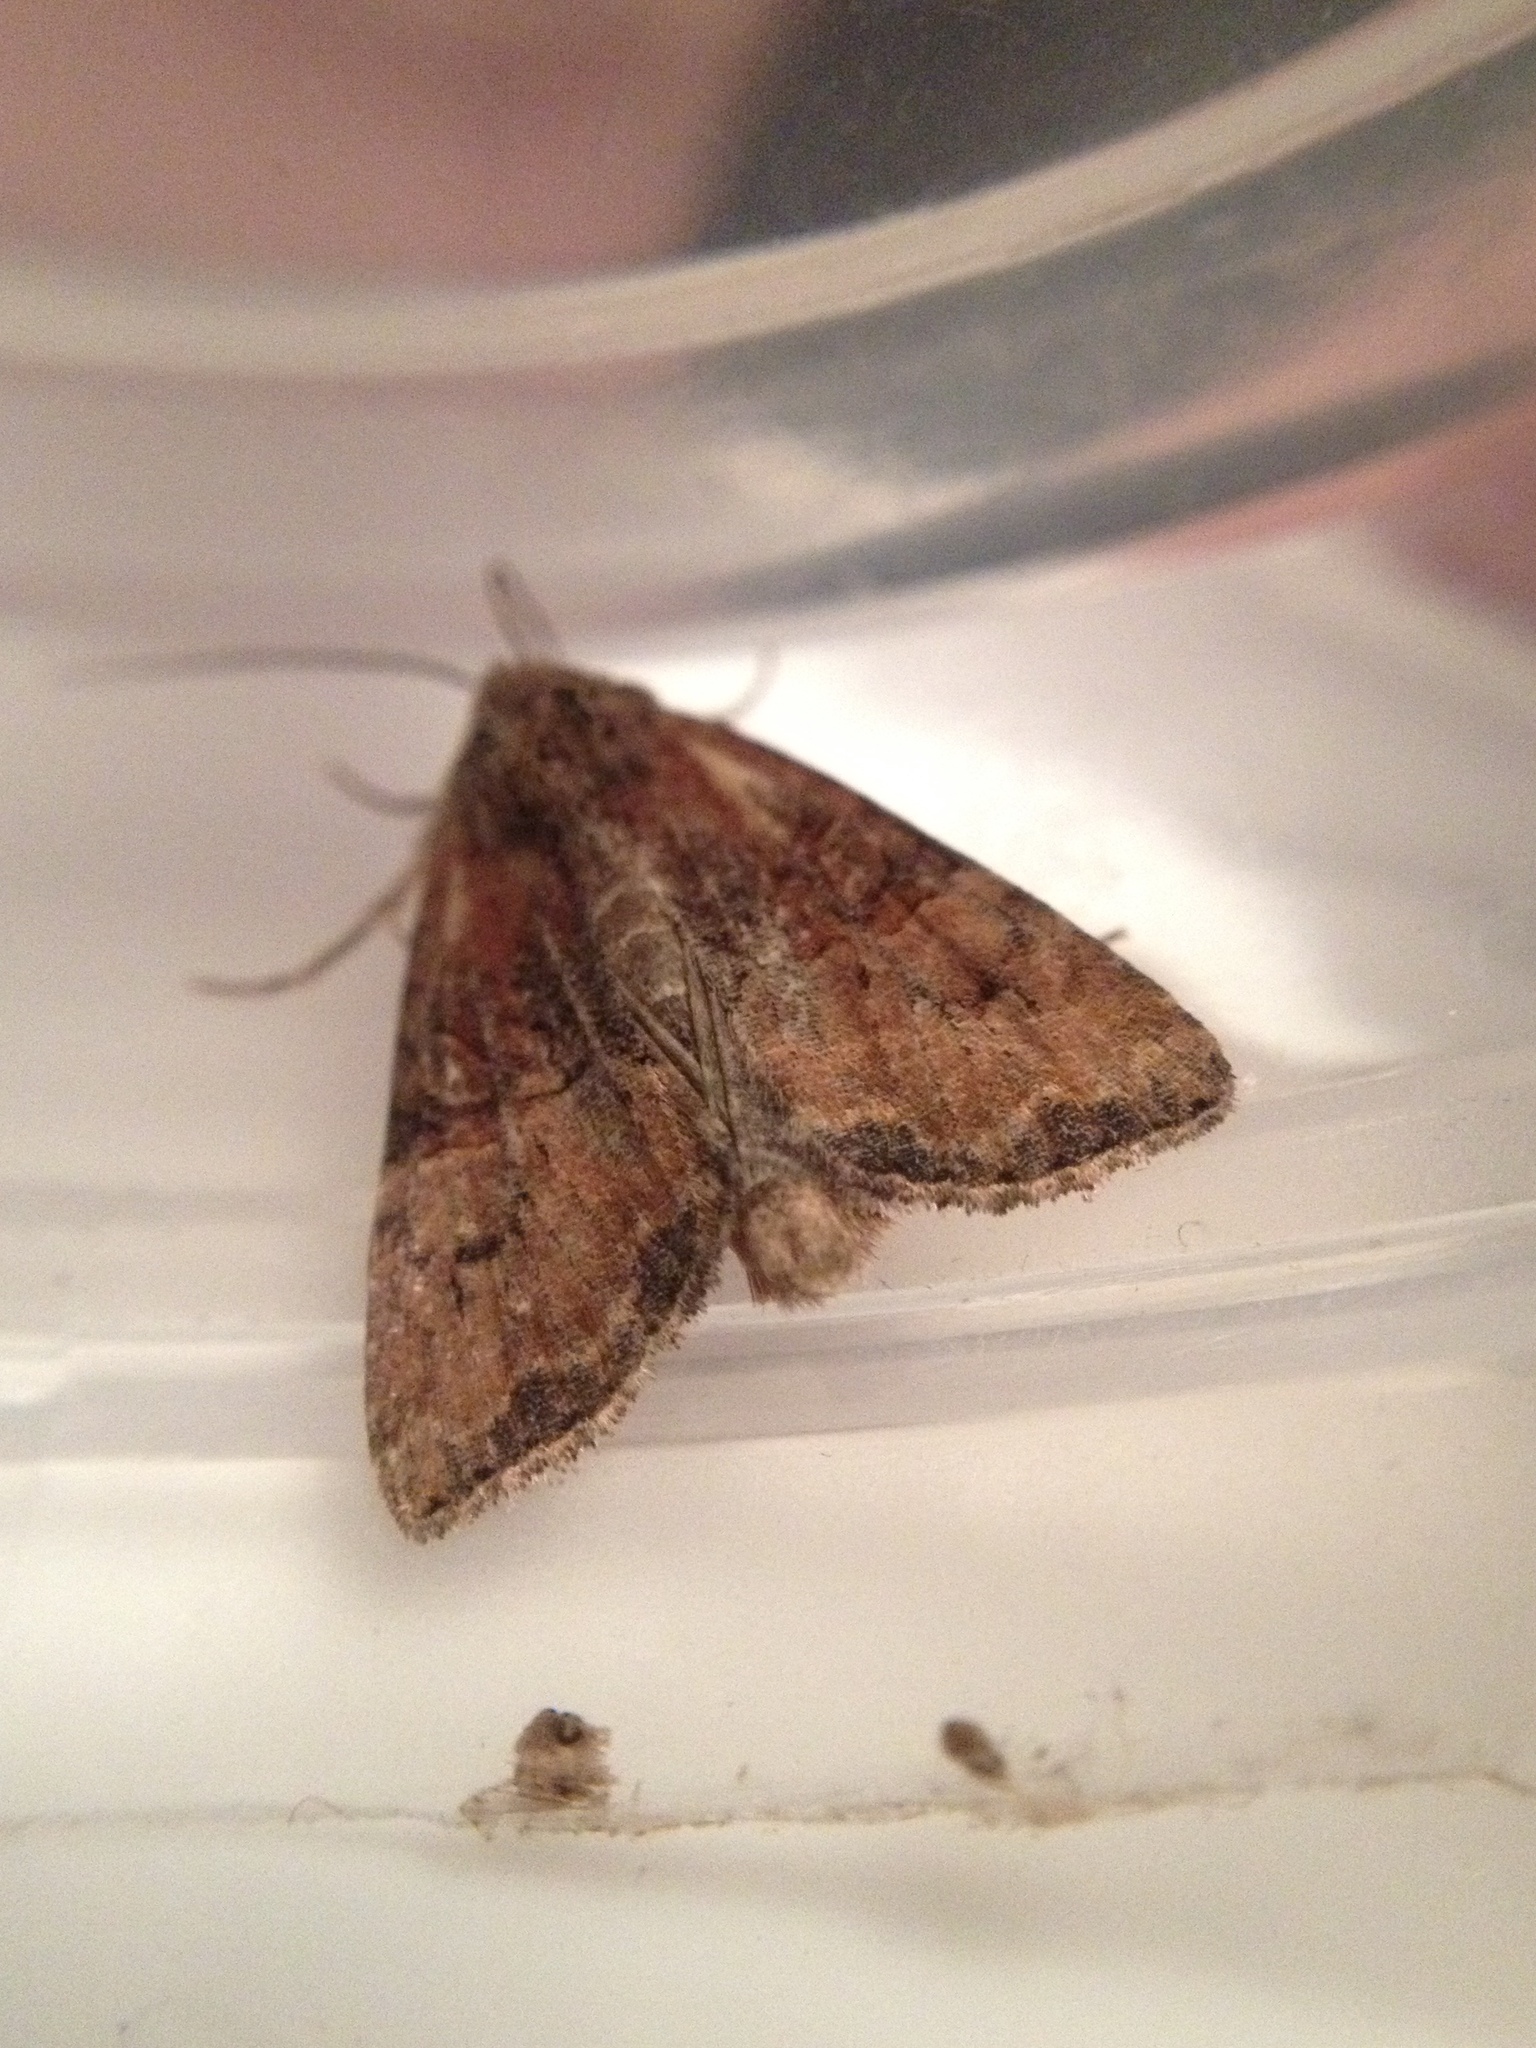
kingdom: Animalia
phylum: Arthropoda
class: Insecta
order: Lepidoptera
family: Noctuidae
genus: Mesoligia
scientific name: Mesoligia furuncula
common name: Cloaked minor
